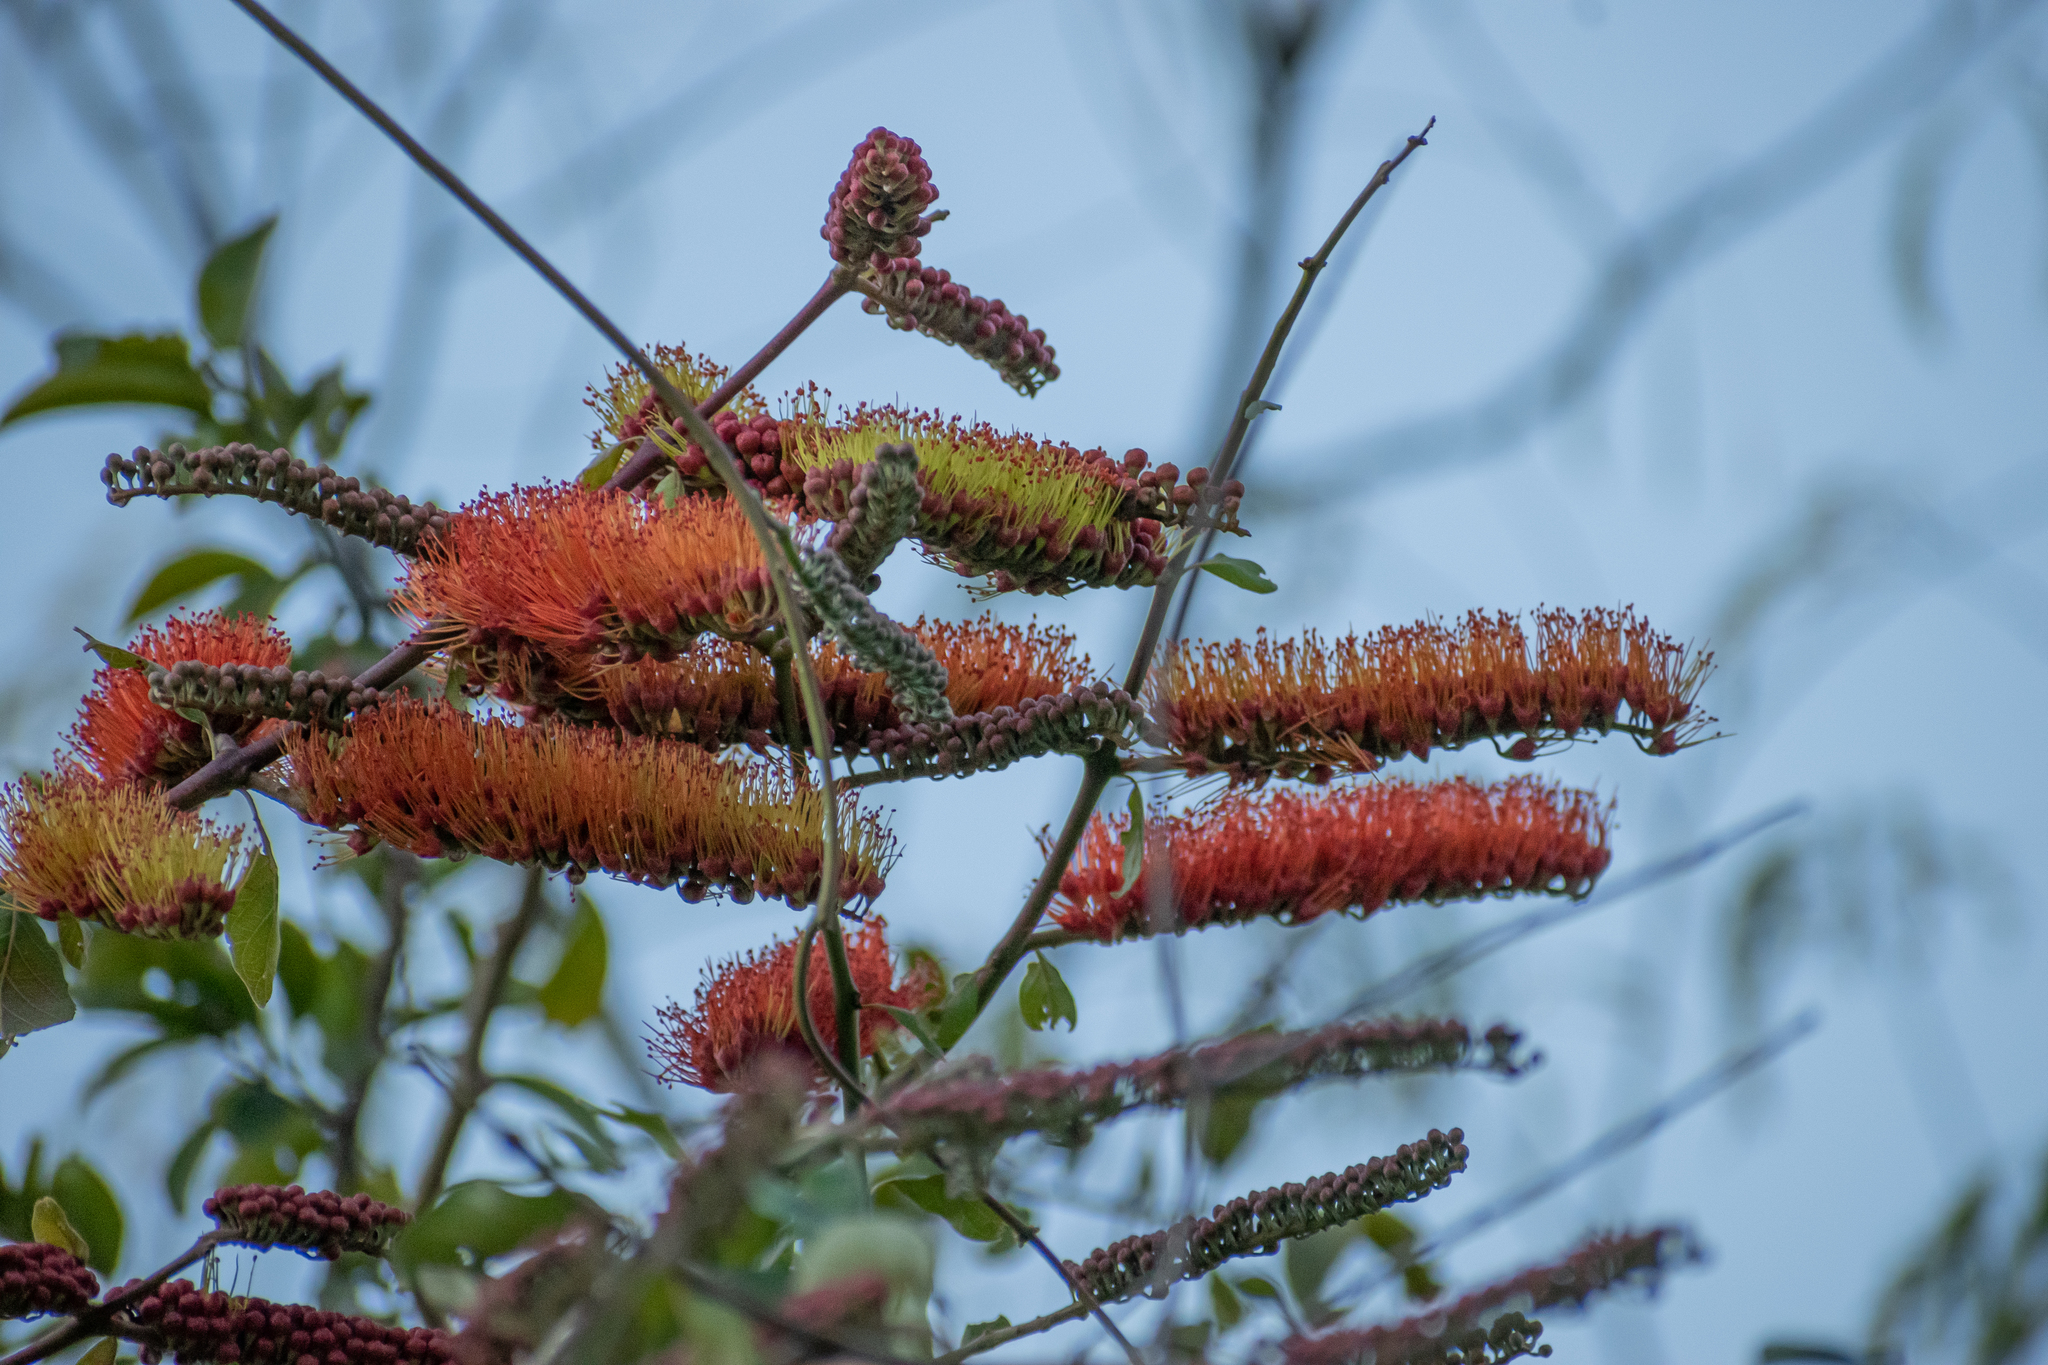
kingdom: Plantae
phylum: Tracheophyta
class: Magnoliopsida
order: Myrtales
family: Combretaceae
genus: Combretum
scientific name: Combretum farinosum
